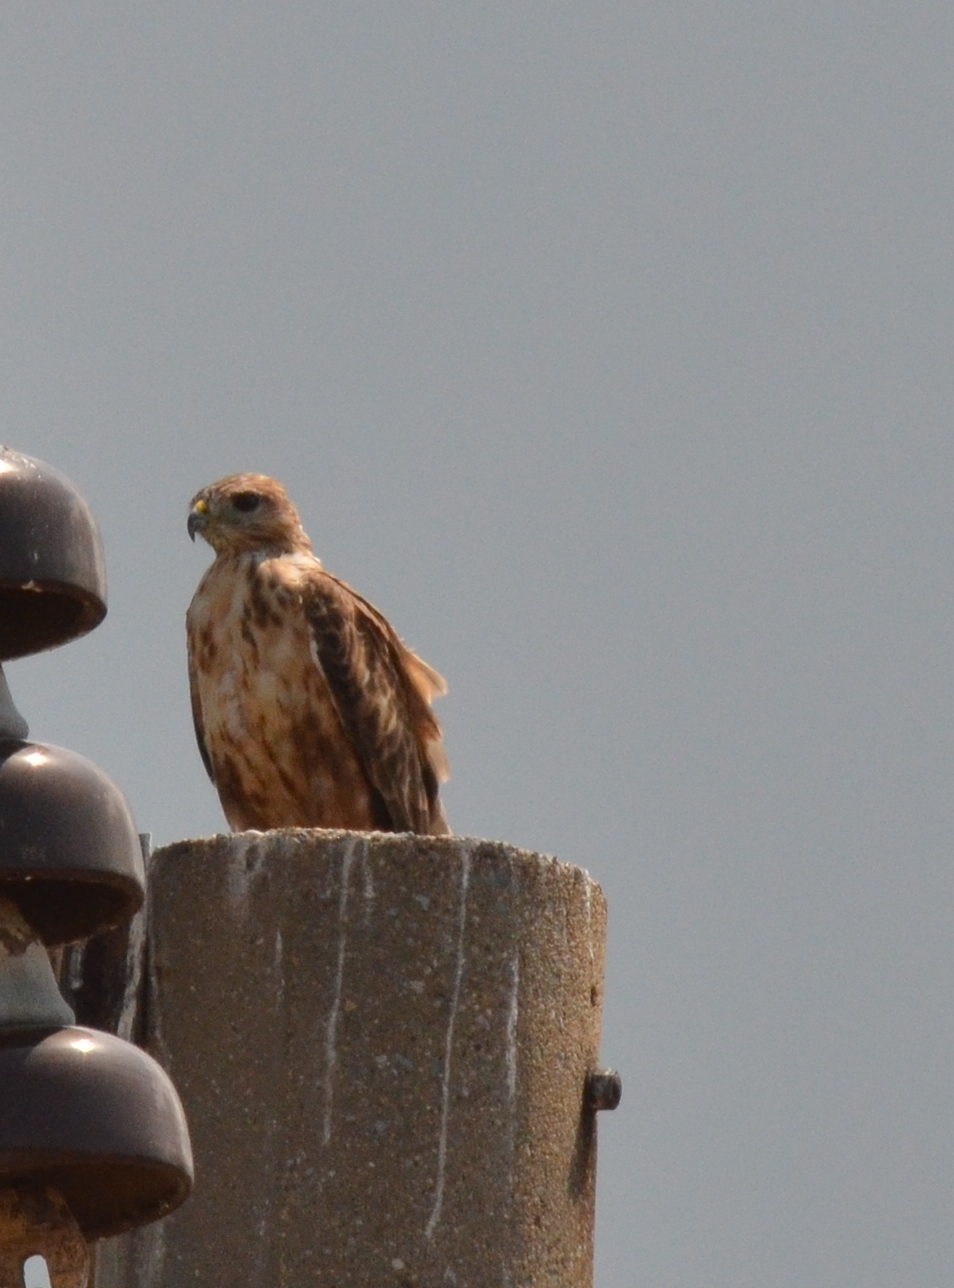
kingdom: Animalia
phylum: Chordata
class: Aves
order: Accipitriformes
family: Accipitridae
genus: Buteo
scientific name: Buteo rufinus
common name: Long-legged buzzard
